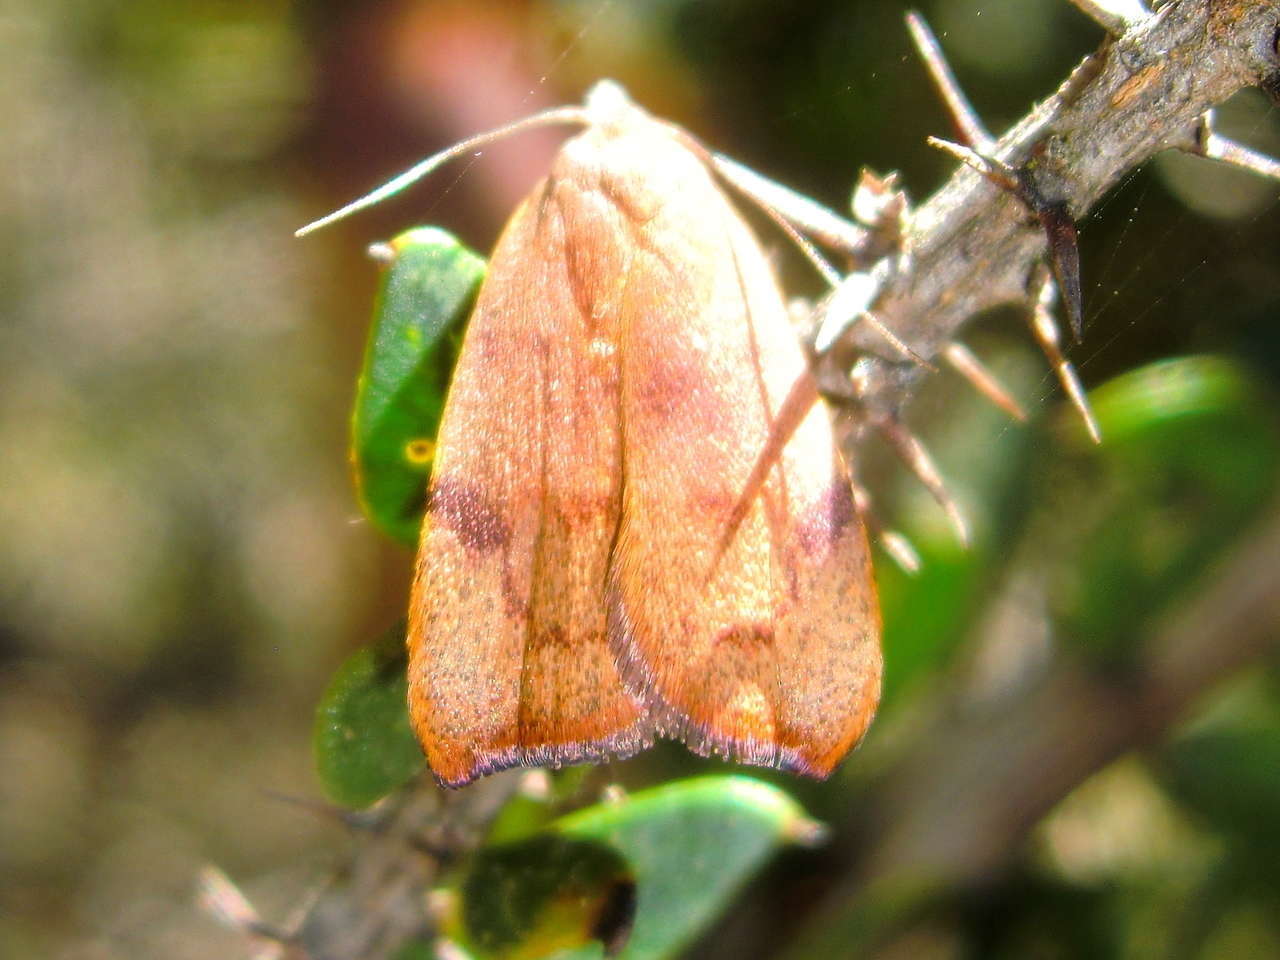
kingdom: Animalia
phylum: Arthropoda
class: Insecta
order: Lepidoptera
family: Oecophoridae
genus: Tortricopsis
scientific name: Tortricopsis uncinella
